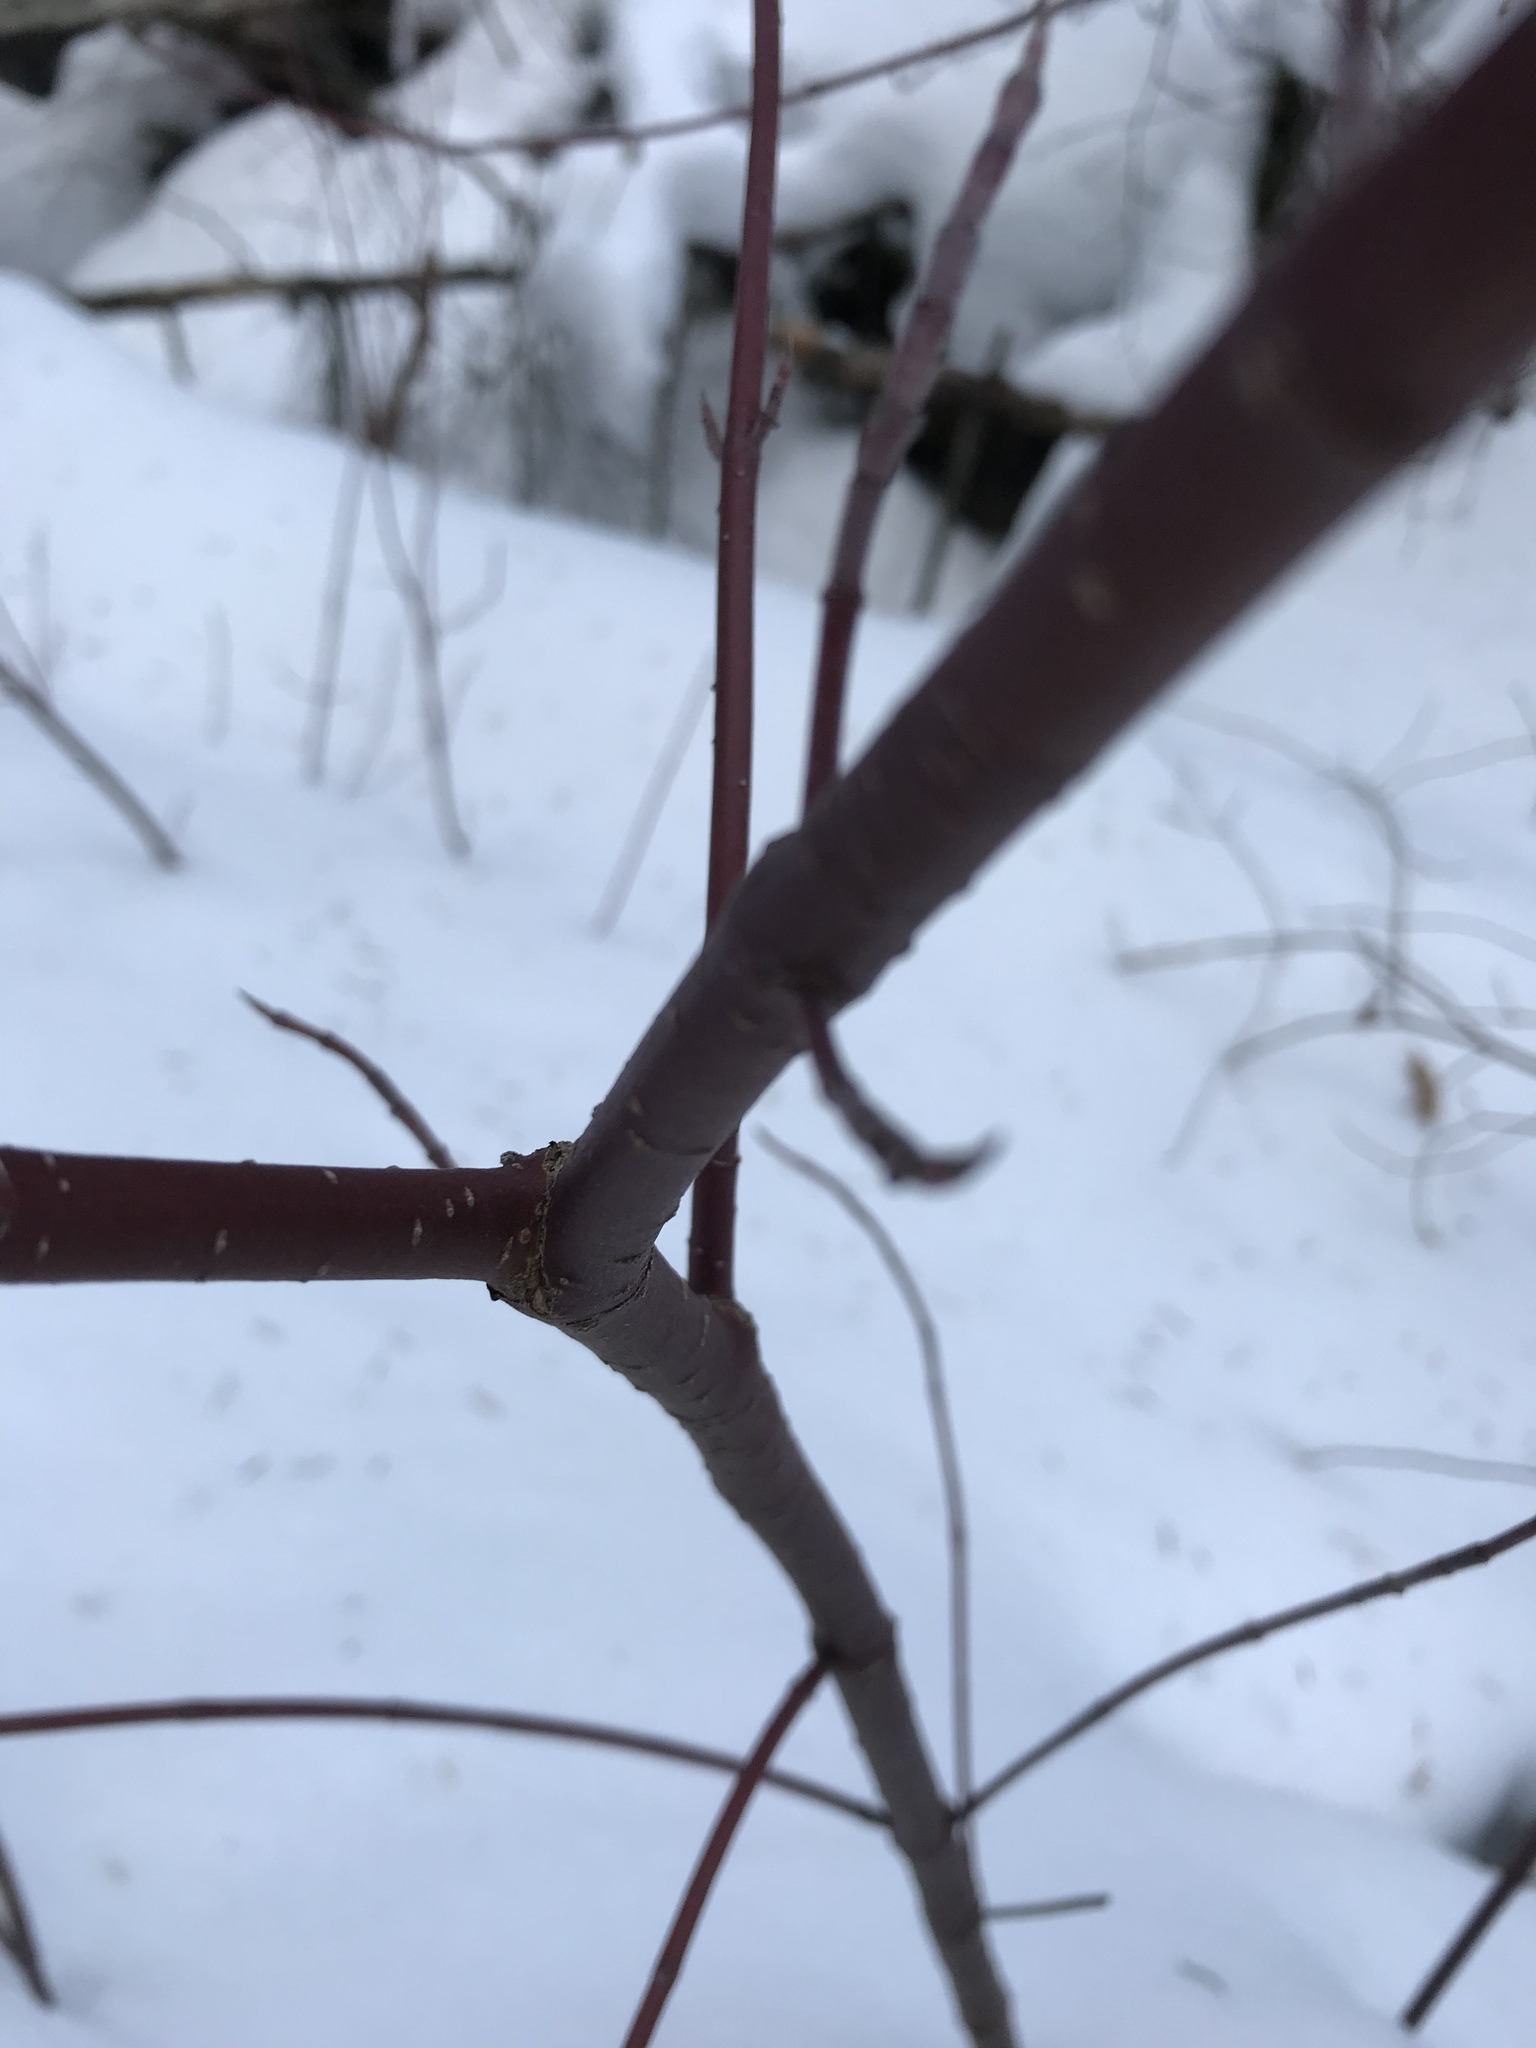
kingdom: Plantae
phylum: Tracheophyta
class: Magnoliopsida
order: Cornales
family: Cornaceae
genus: Cornus
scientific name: Cornus sericea
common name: Red-osier dogwood
